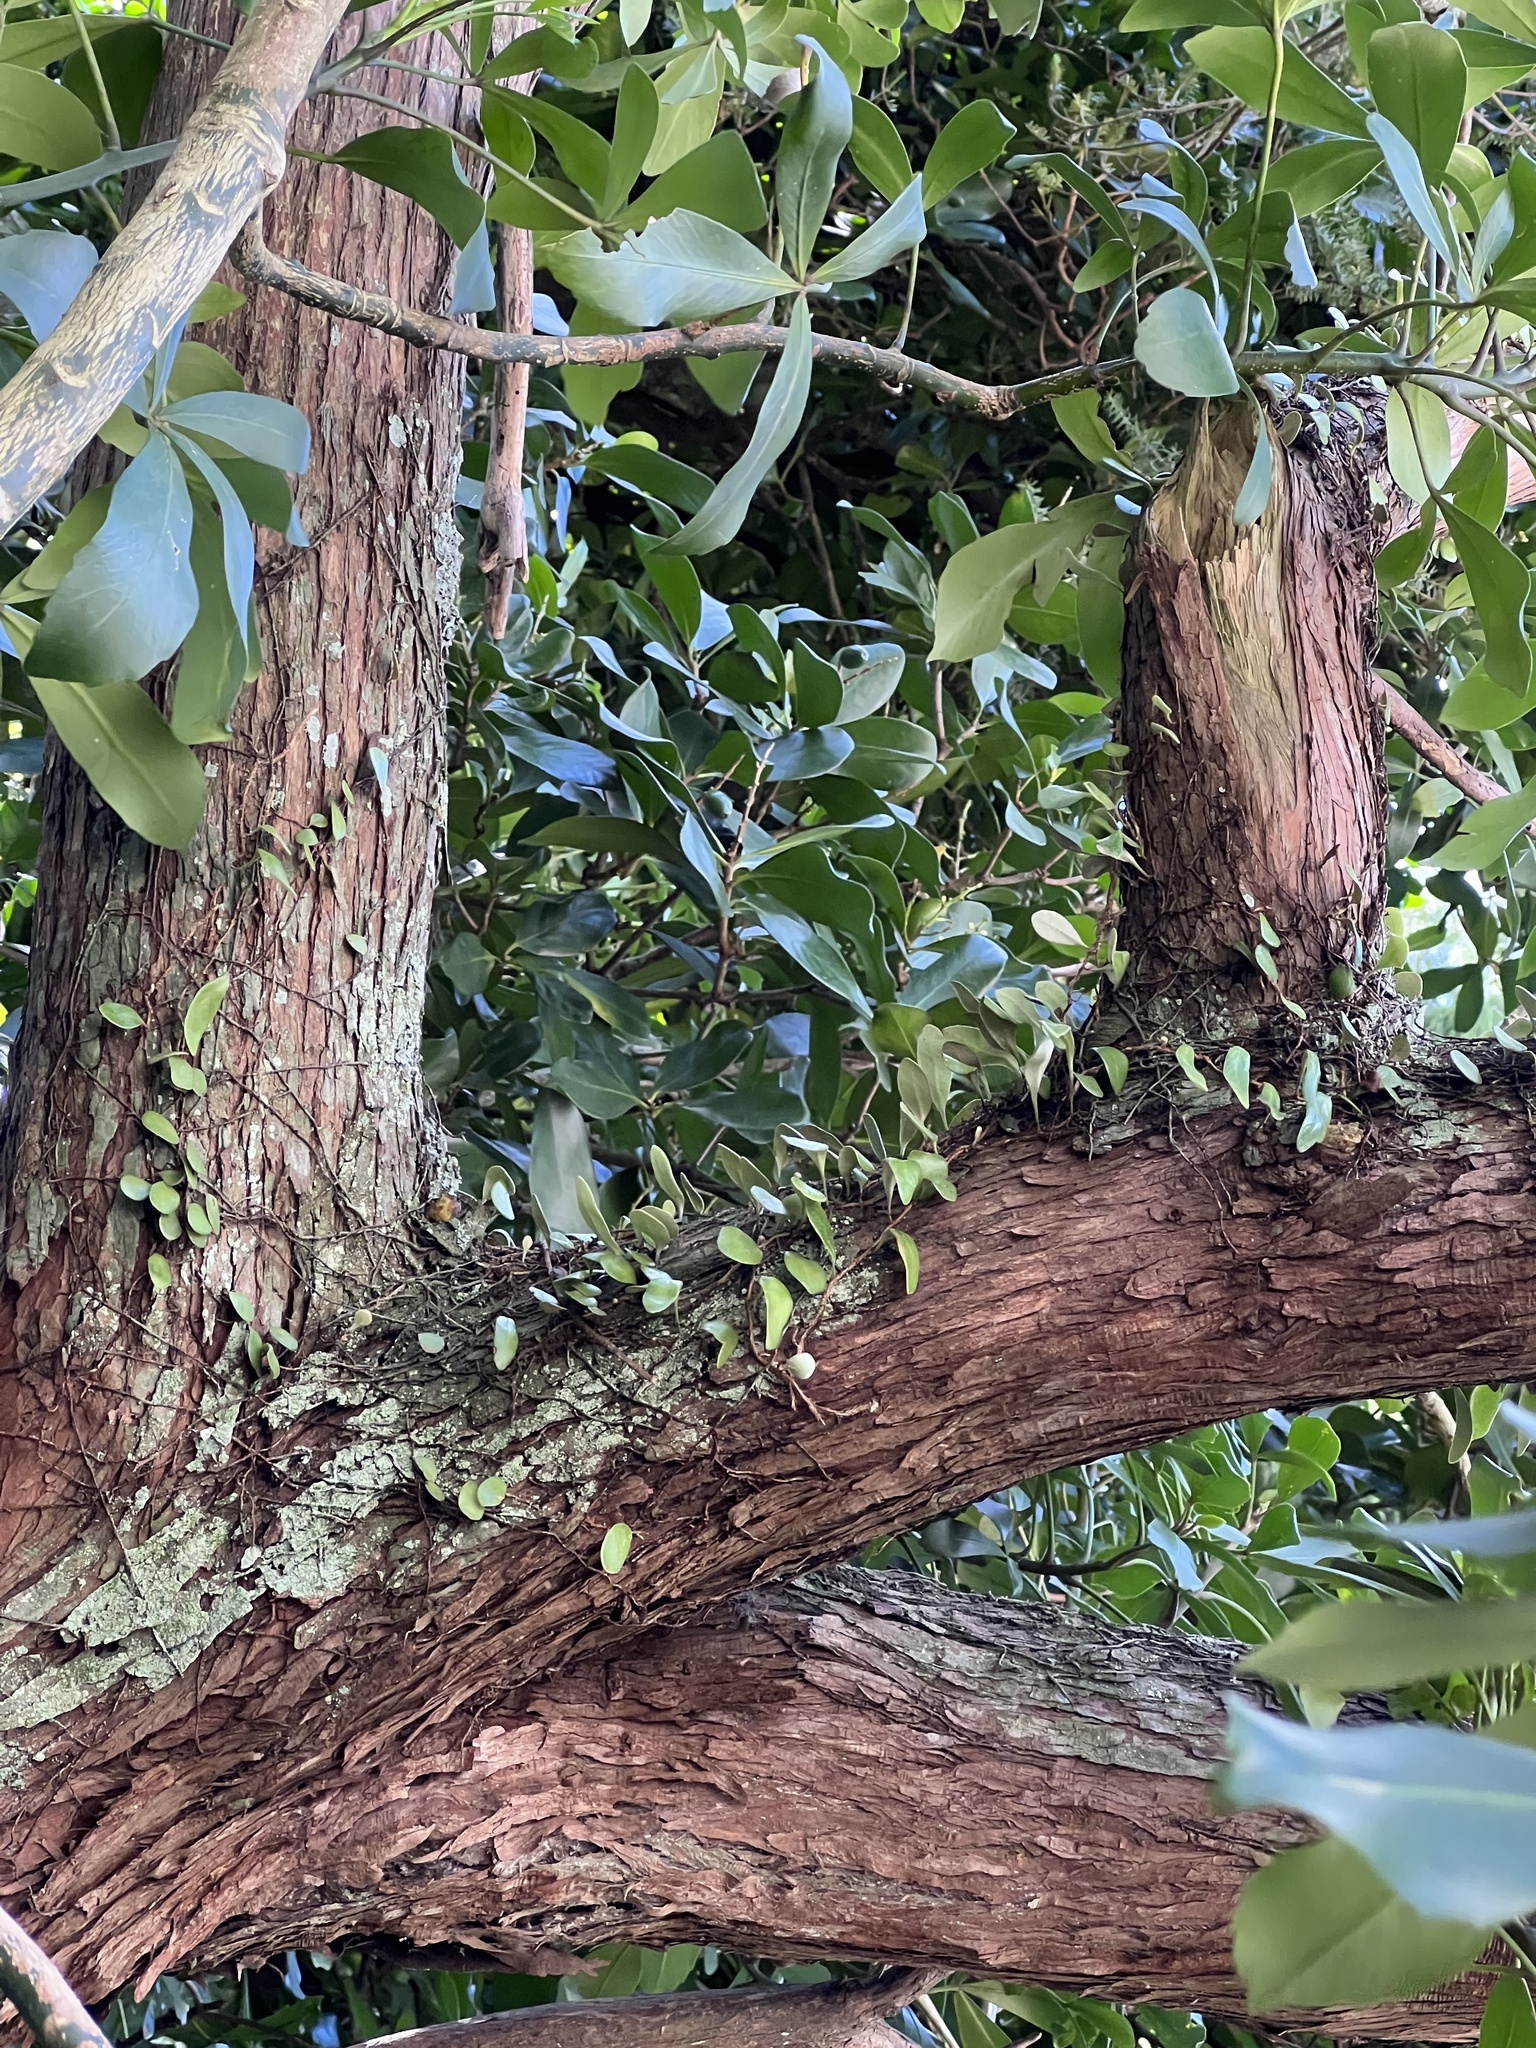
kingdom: Plantae
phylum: Tracheophyta
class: Polypodiopsida
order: Polypodiales
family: Polypodiaceae
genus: Pyrrosia
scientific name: Pyrrosia eleagnifolia
